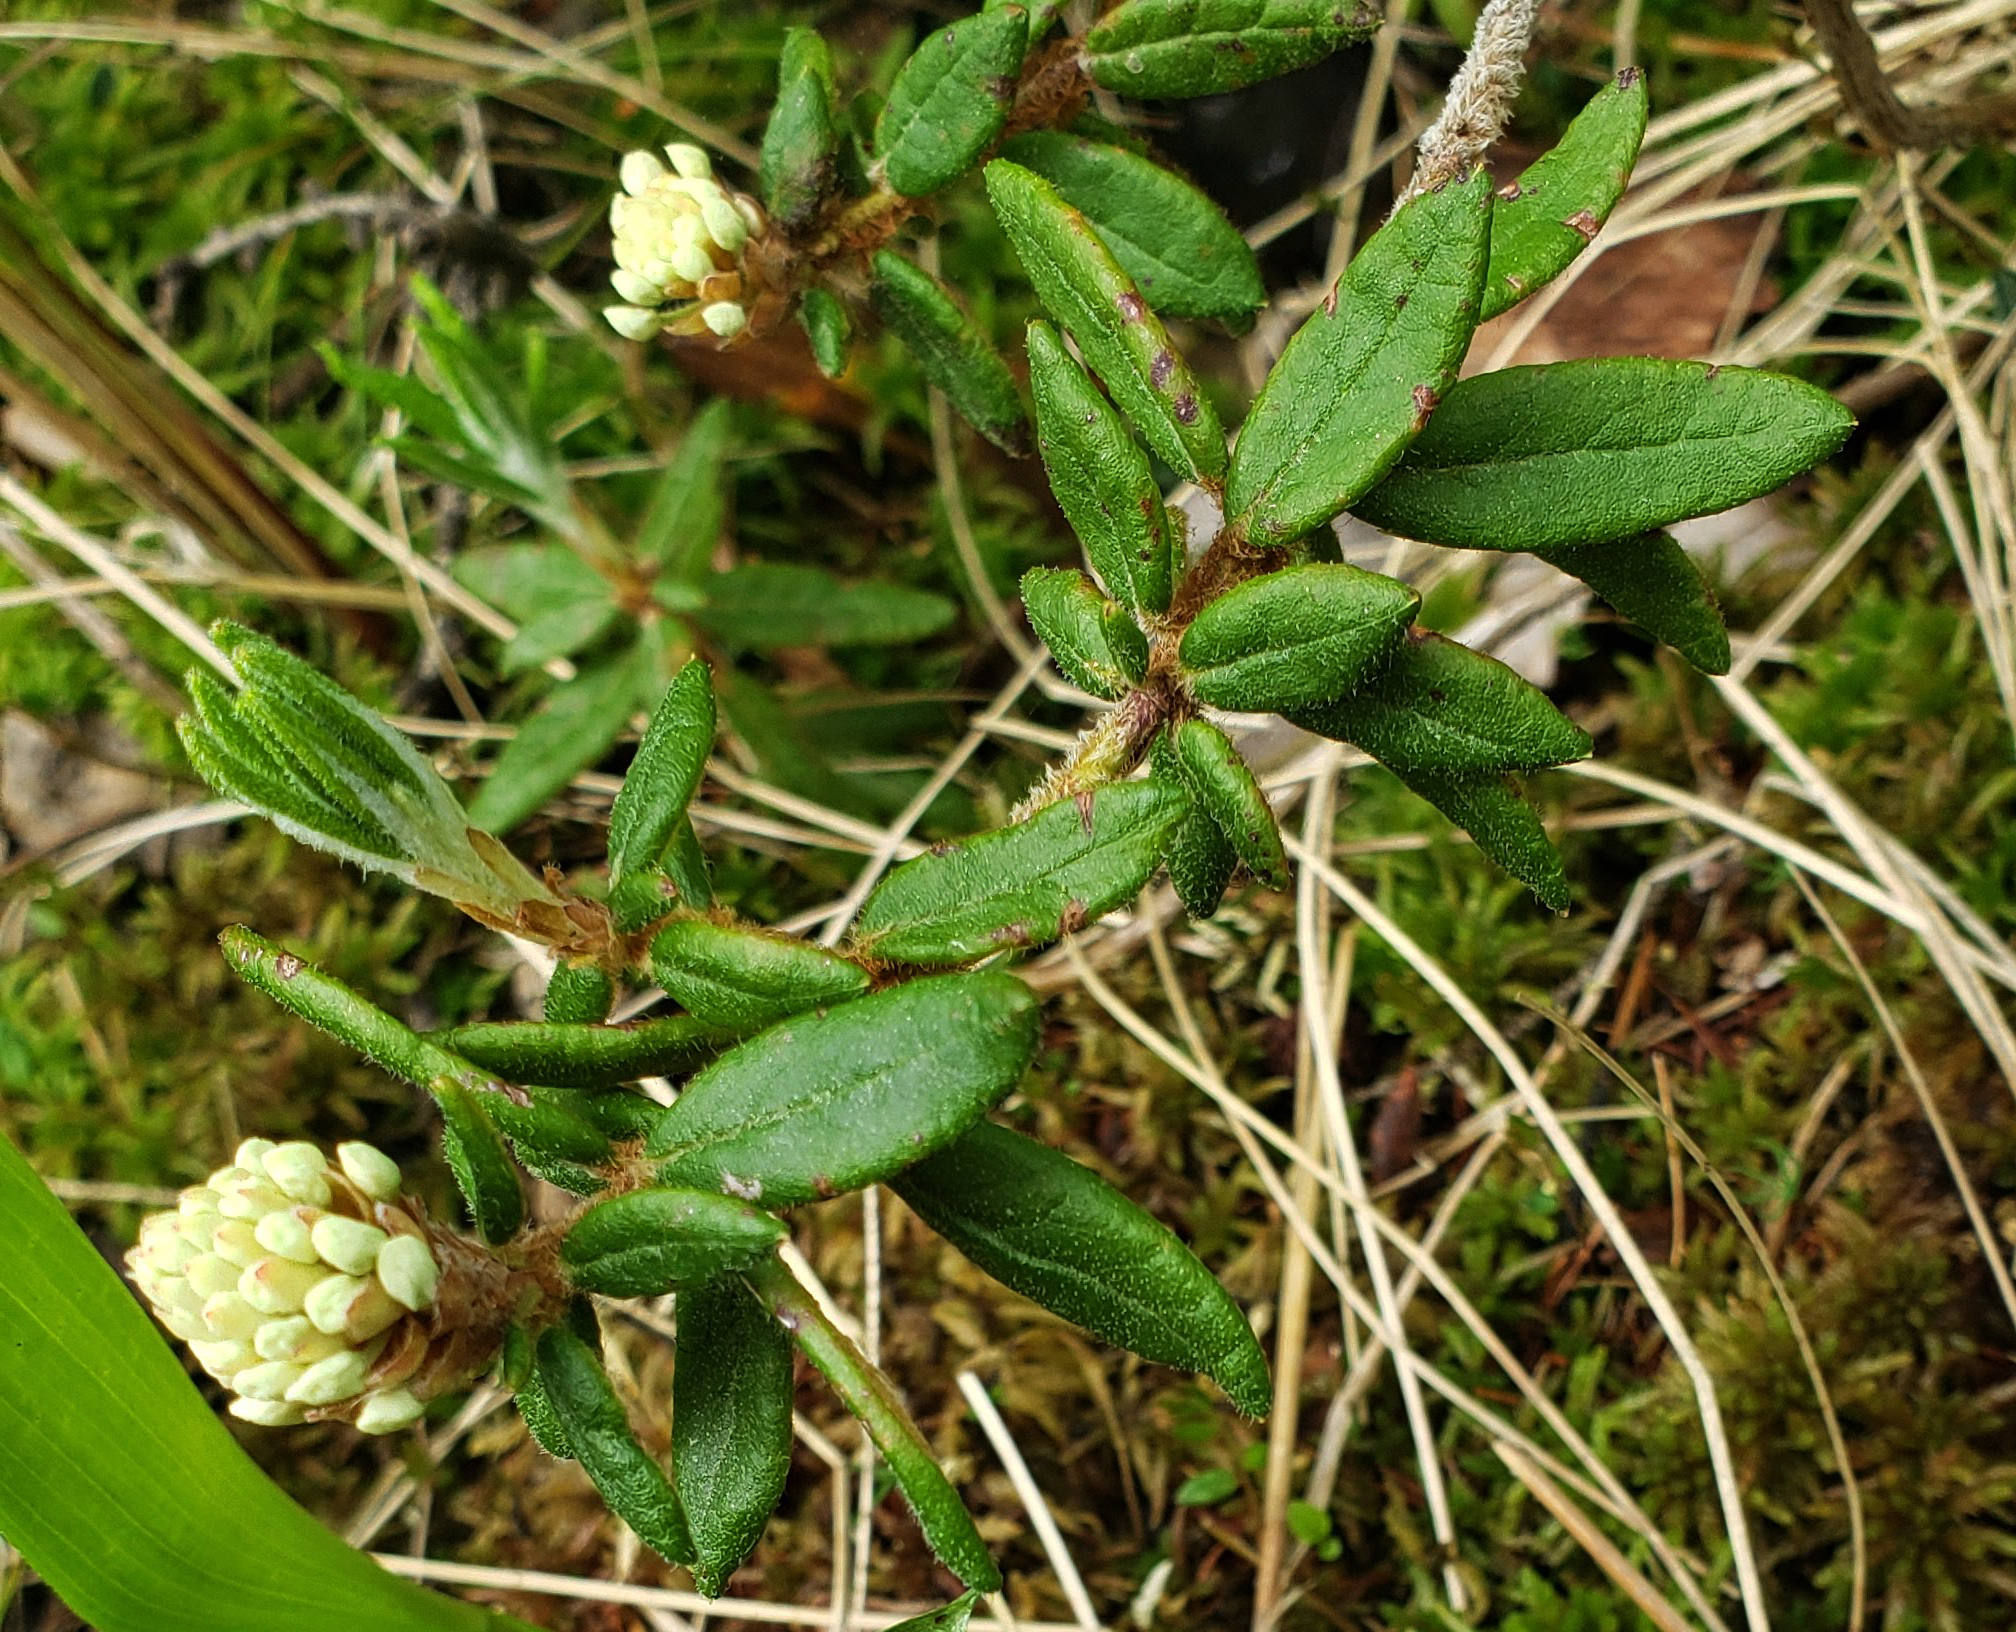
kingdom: Plantae
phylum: Tracheophyta
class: Magnoliopsida
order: Ericales
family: Ericaceae
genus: Rhododendron
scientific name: Rhododendron groenlandicum
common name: Bog labrador tea
